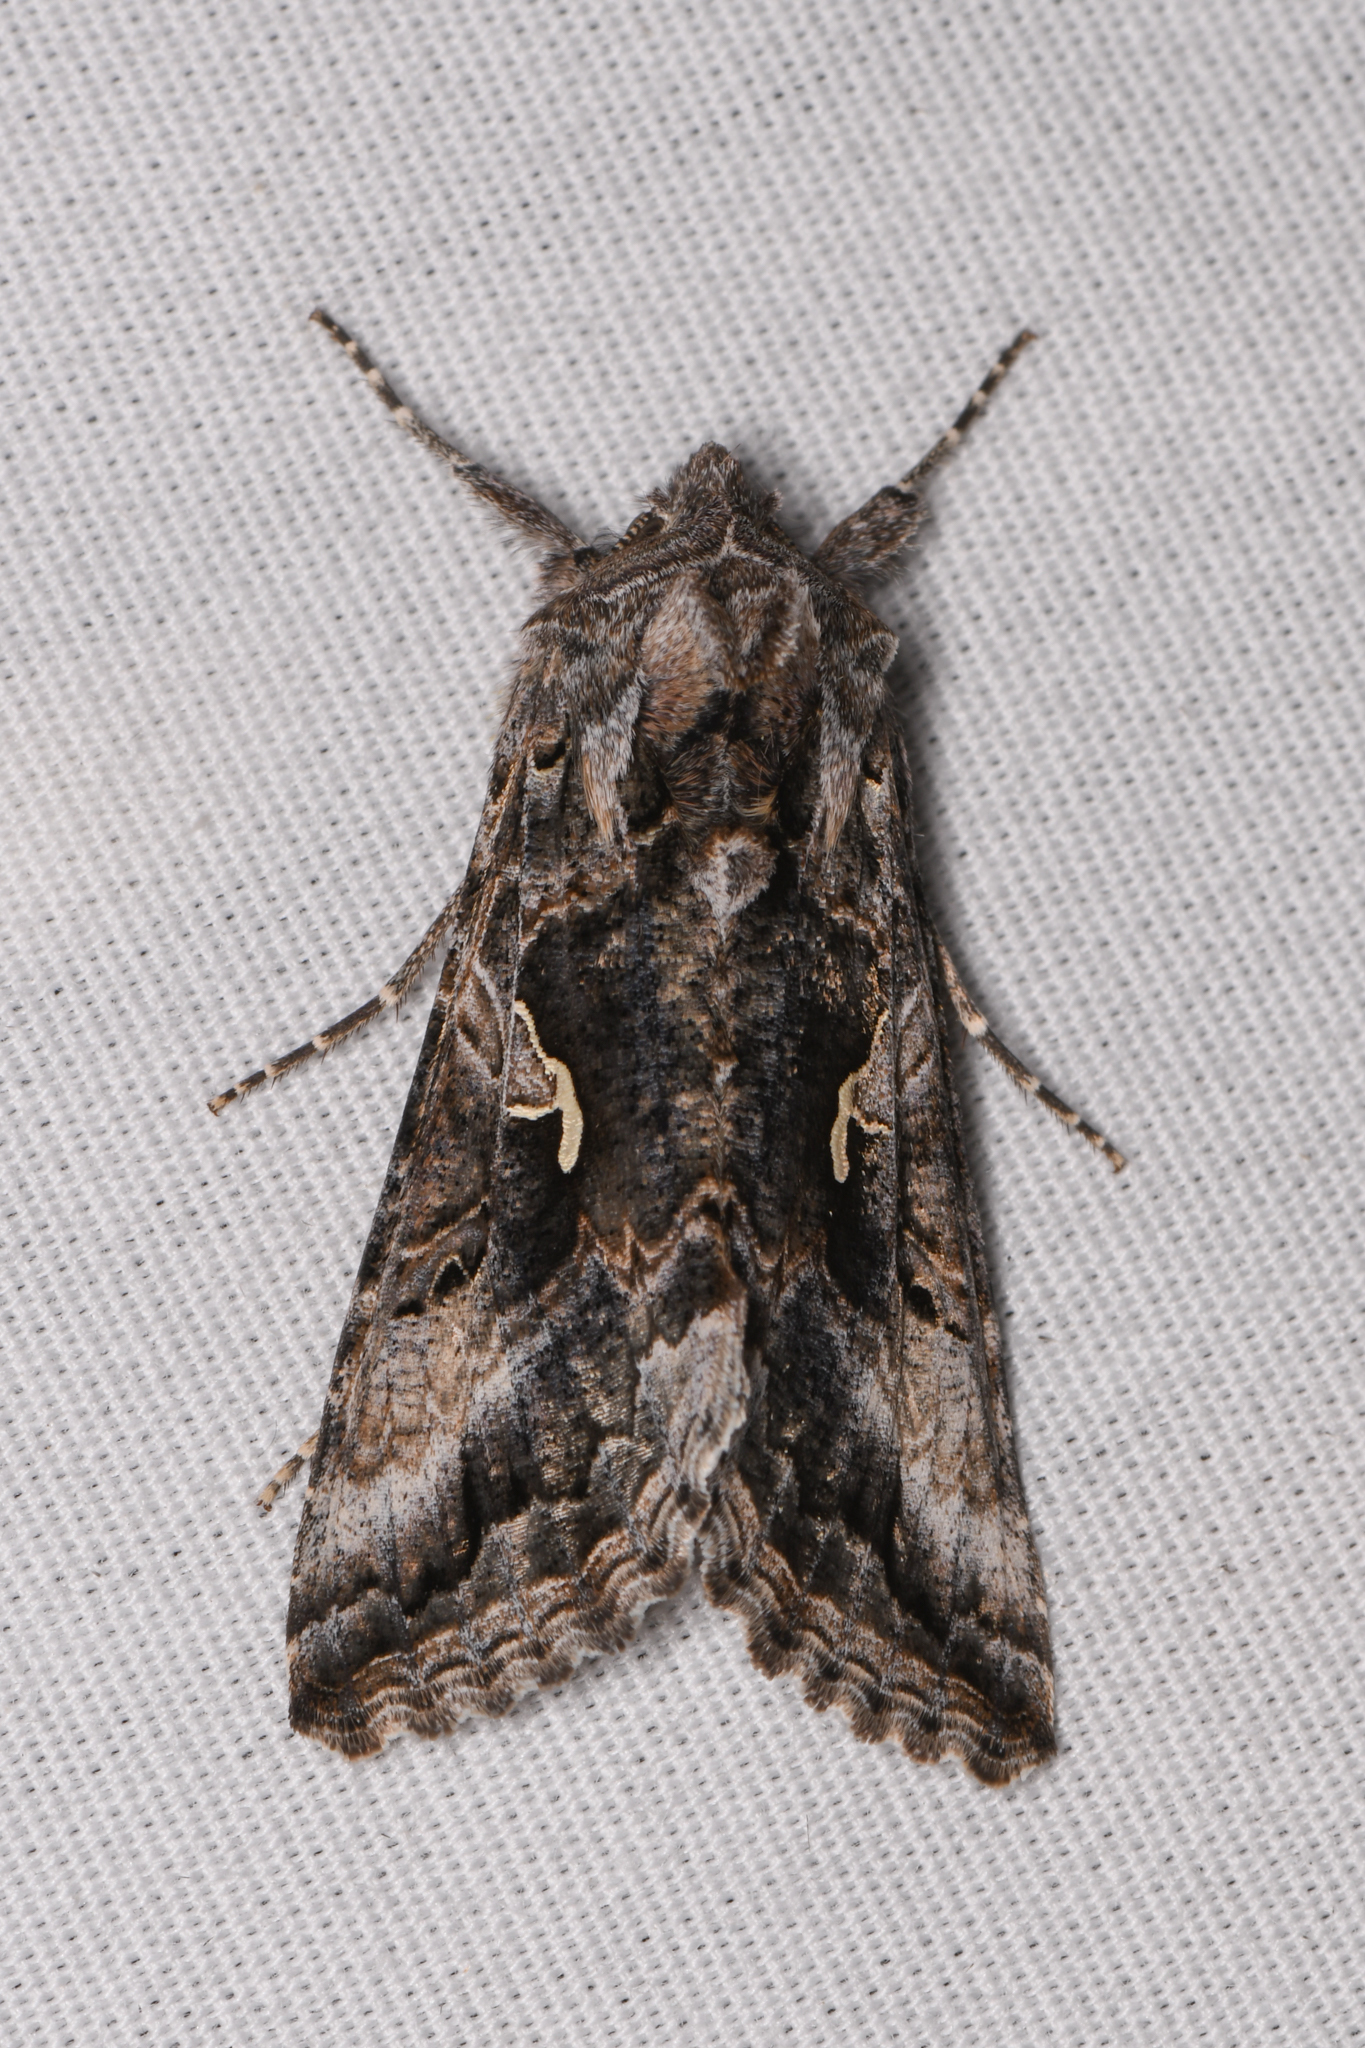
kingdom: Animalia
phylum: Arthropoda
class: Insecta
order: Lepidoptera
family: Noctuidae
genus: Autographa
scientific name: Autographa californica
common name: Alfalfa looper
